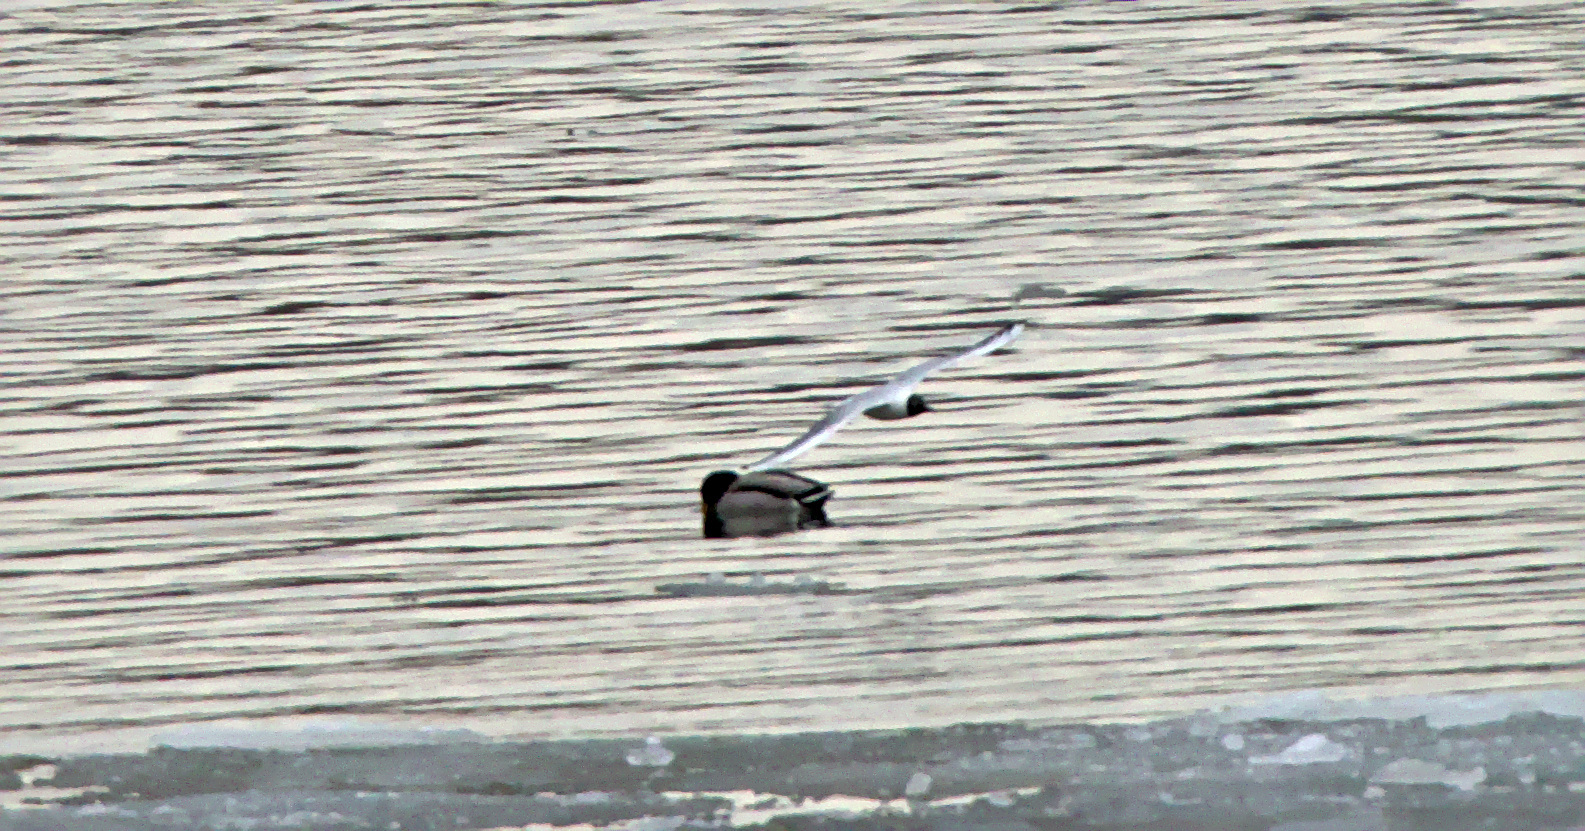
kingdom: Animalia
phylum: Chordata
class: Aves
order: Charadriiformes
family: Laridae
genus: Chroicocephalus
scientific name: Chroicocephalus ridibundus
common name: Black-headed gull
